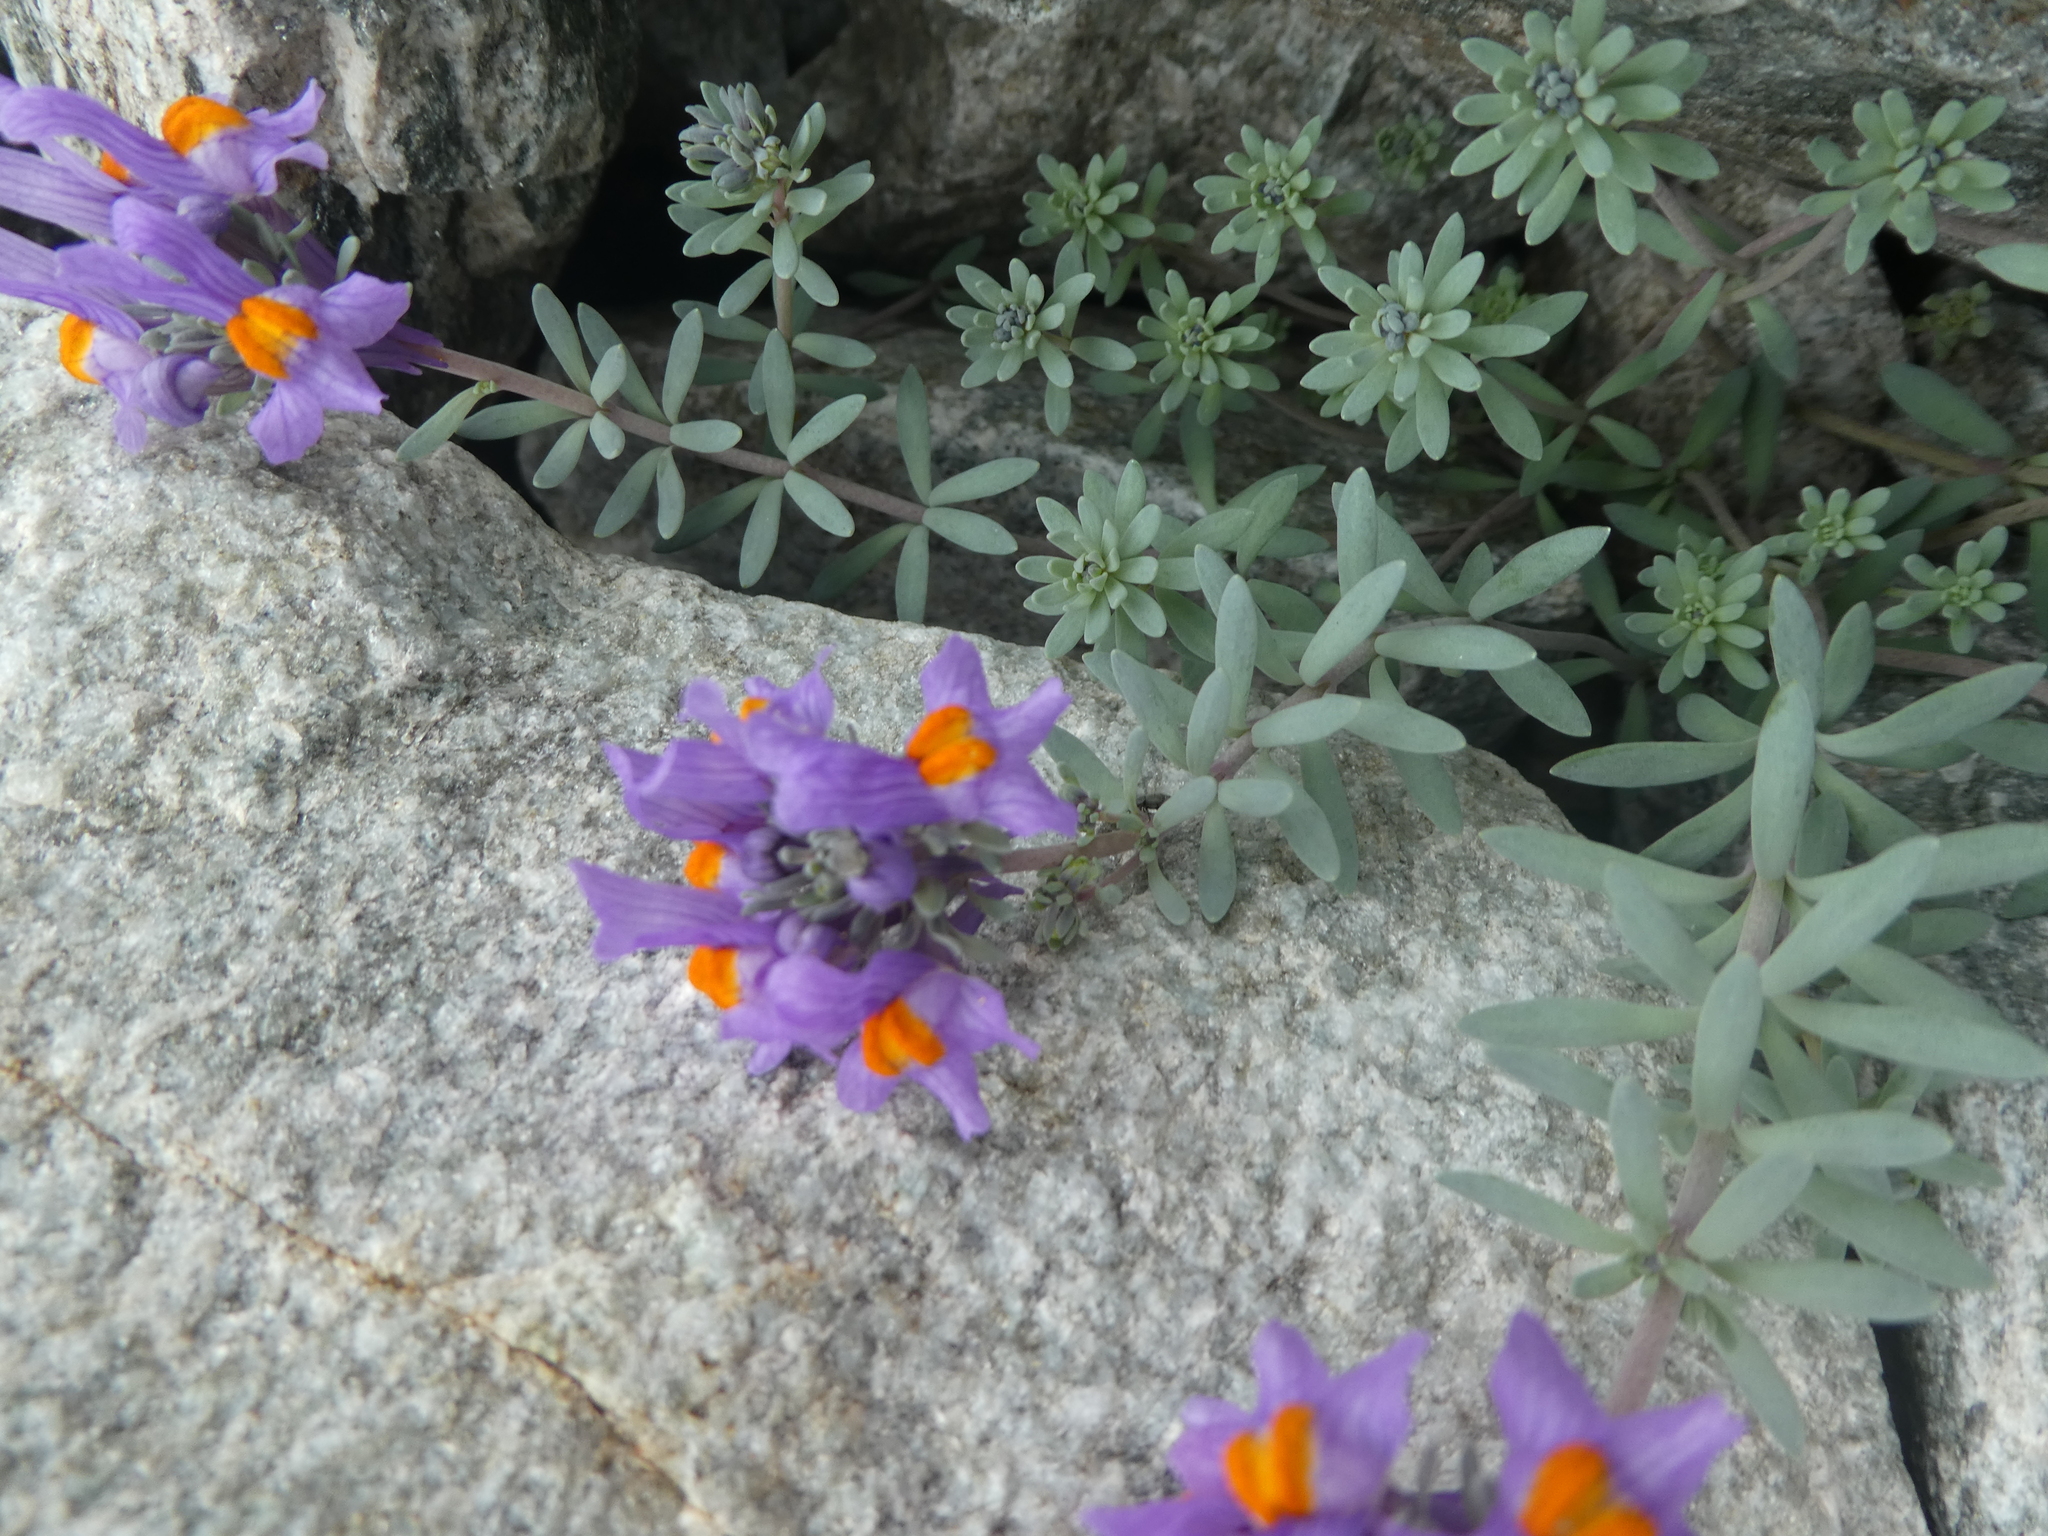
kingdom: Plantae
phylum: Tracheophyta
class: Magnoliopsida
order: Lamiales
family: Plantaginaceae
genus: Linaria
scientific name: Linaria alpina
